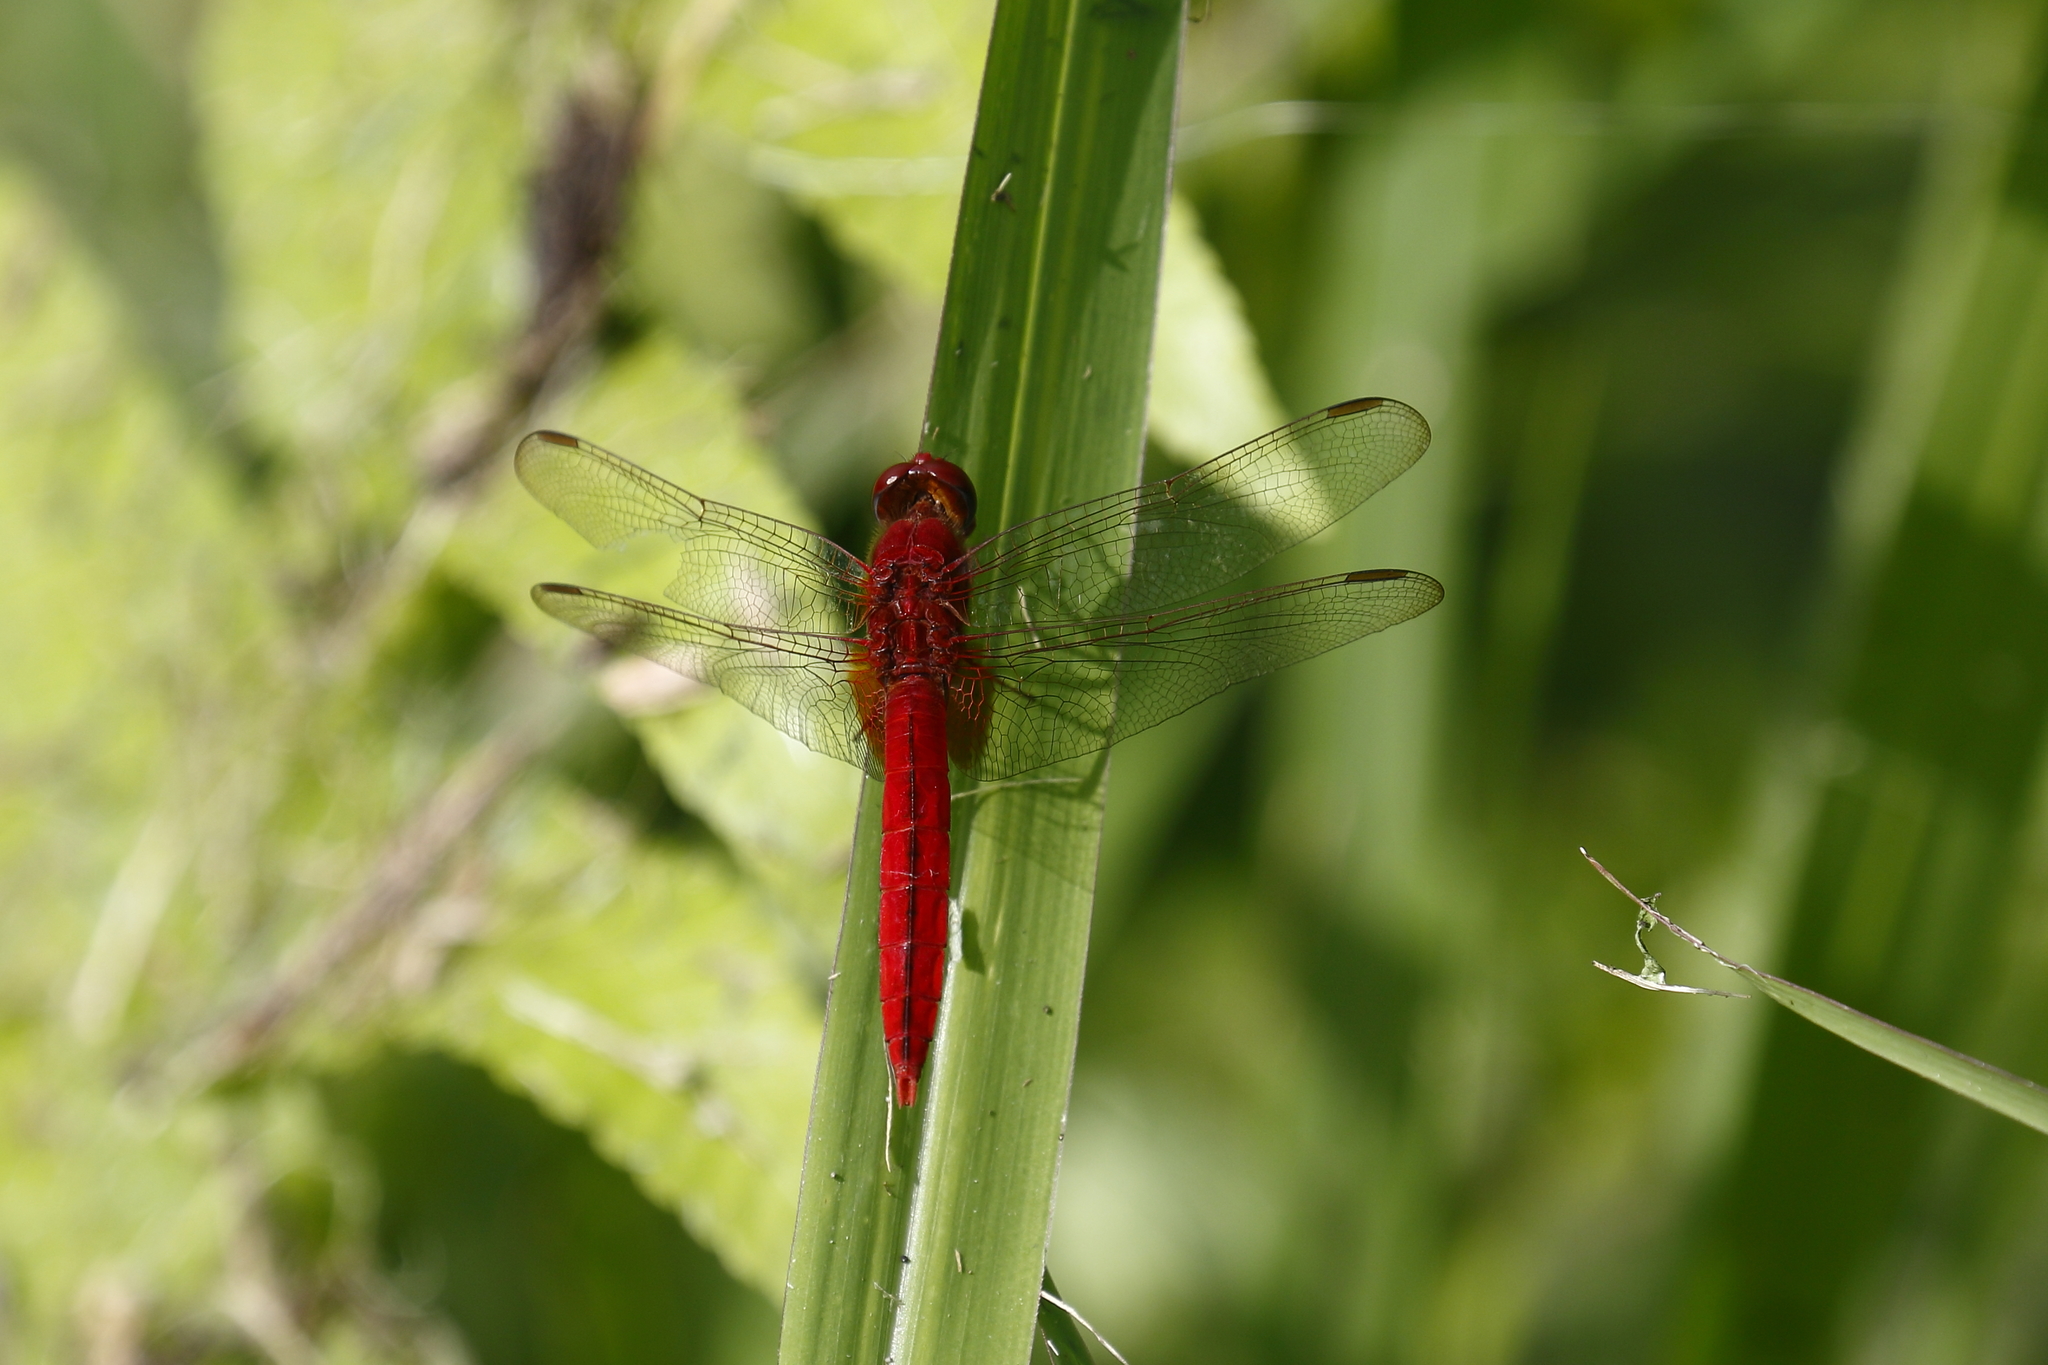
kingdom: Animalia
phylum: Arthropoda
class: Insecta
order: Odonata
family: Libellulidae
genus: Crocothemis
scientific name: Crocothemis servilia
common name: Scarlet skimmer
